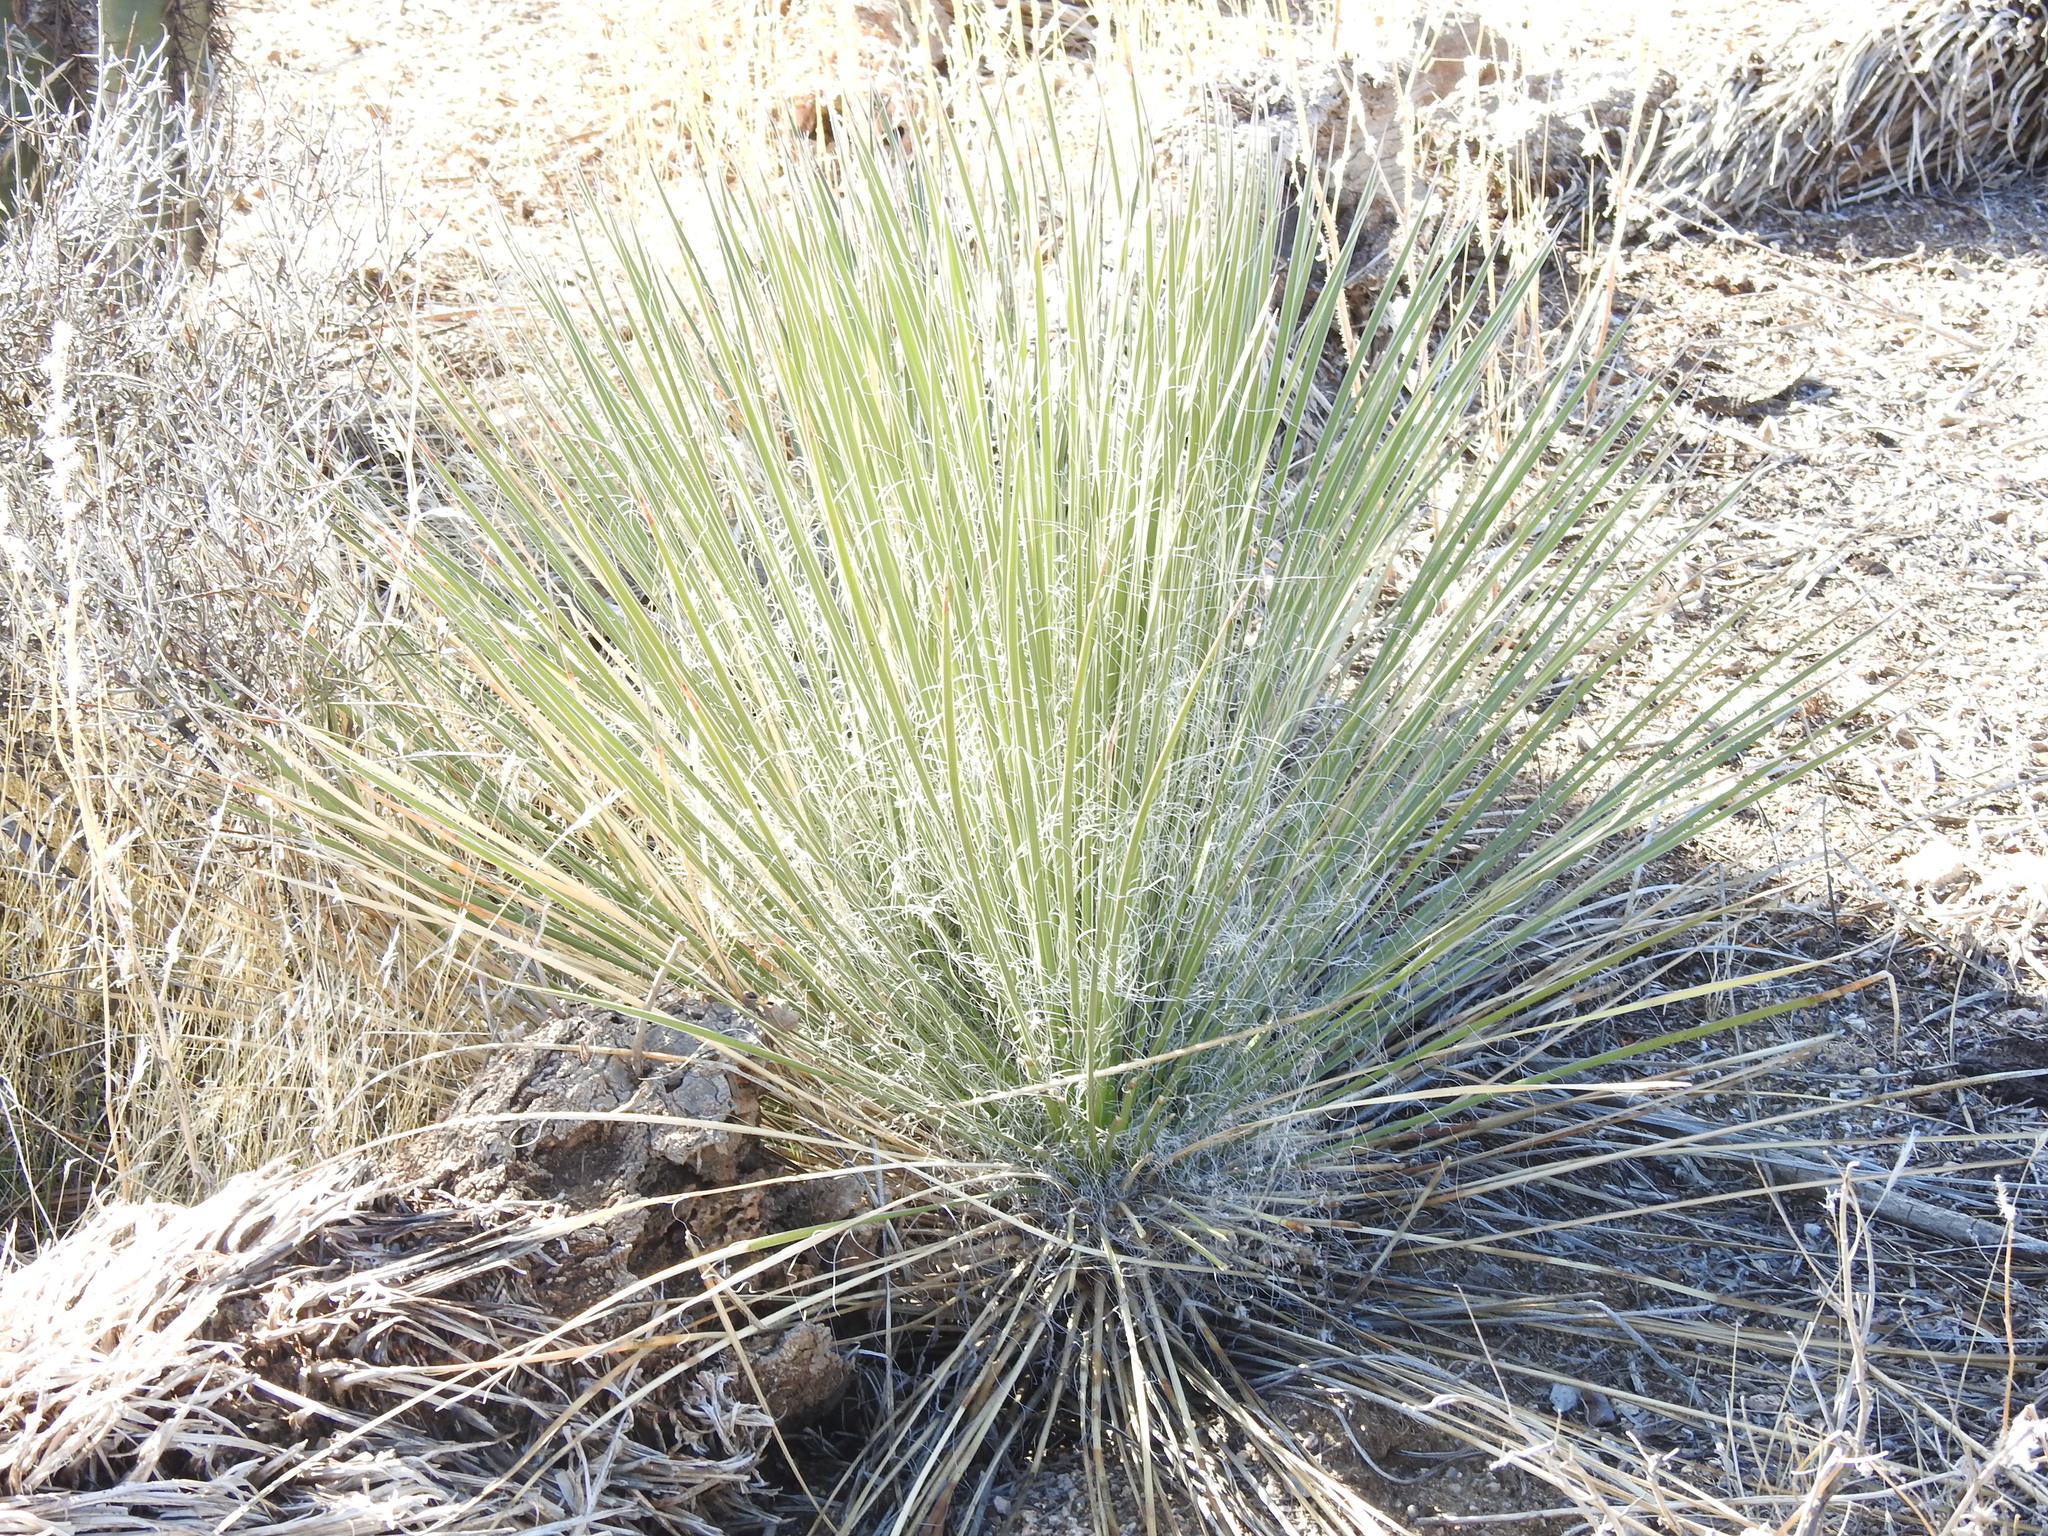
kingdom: Plantae
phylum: Tracheophyta
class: Liliopsida
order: Asparagales
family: Asparagaceae
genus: Yucca
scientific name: Yucca elata
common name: Palmella
